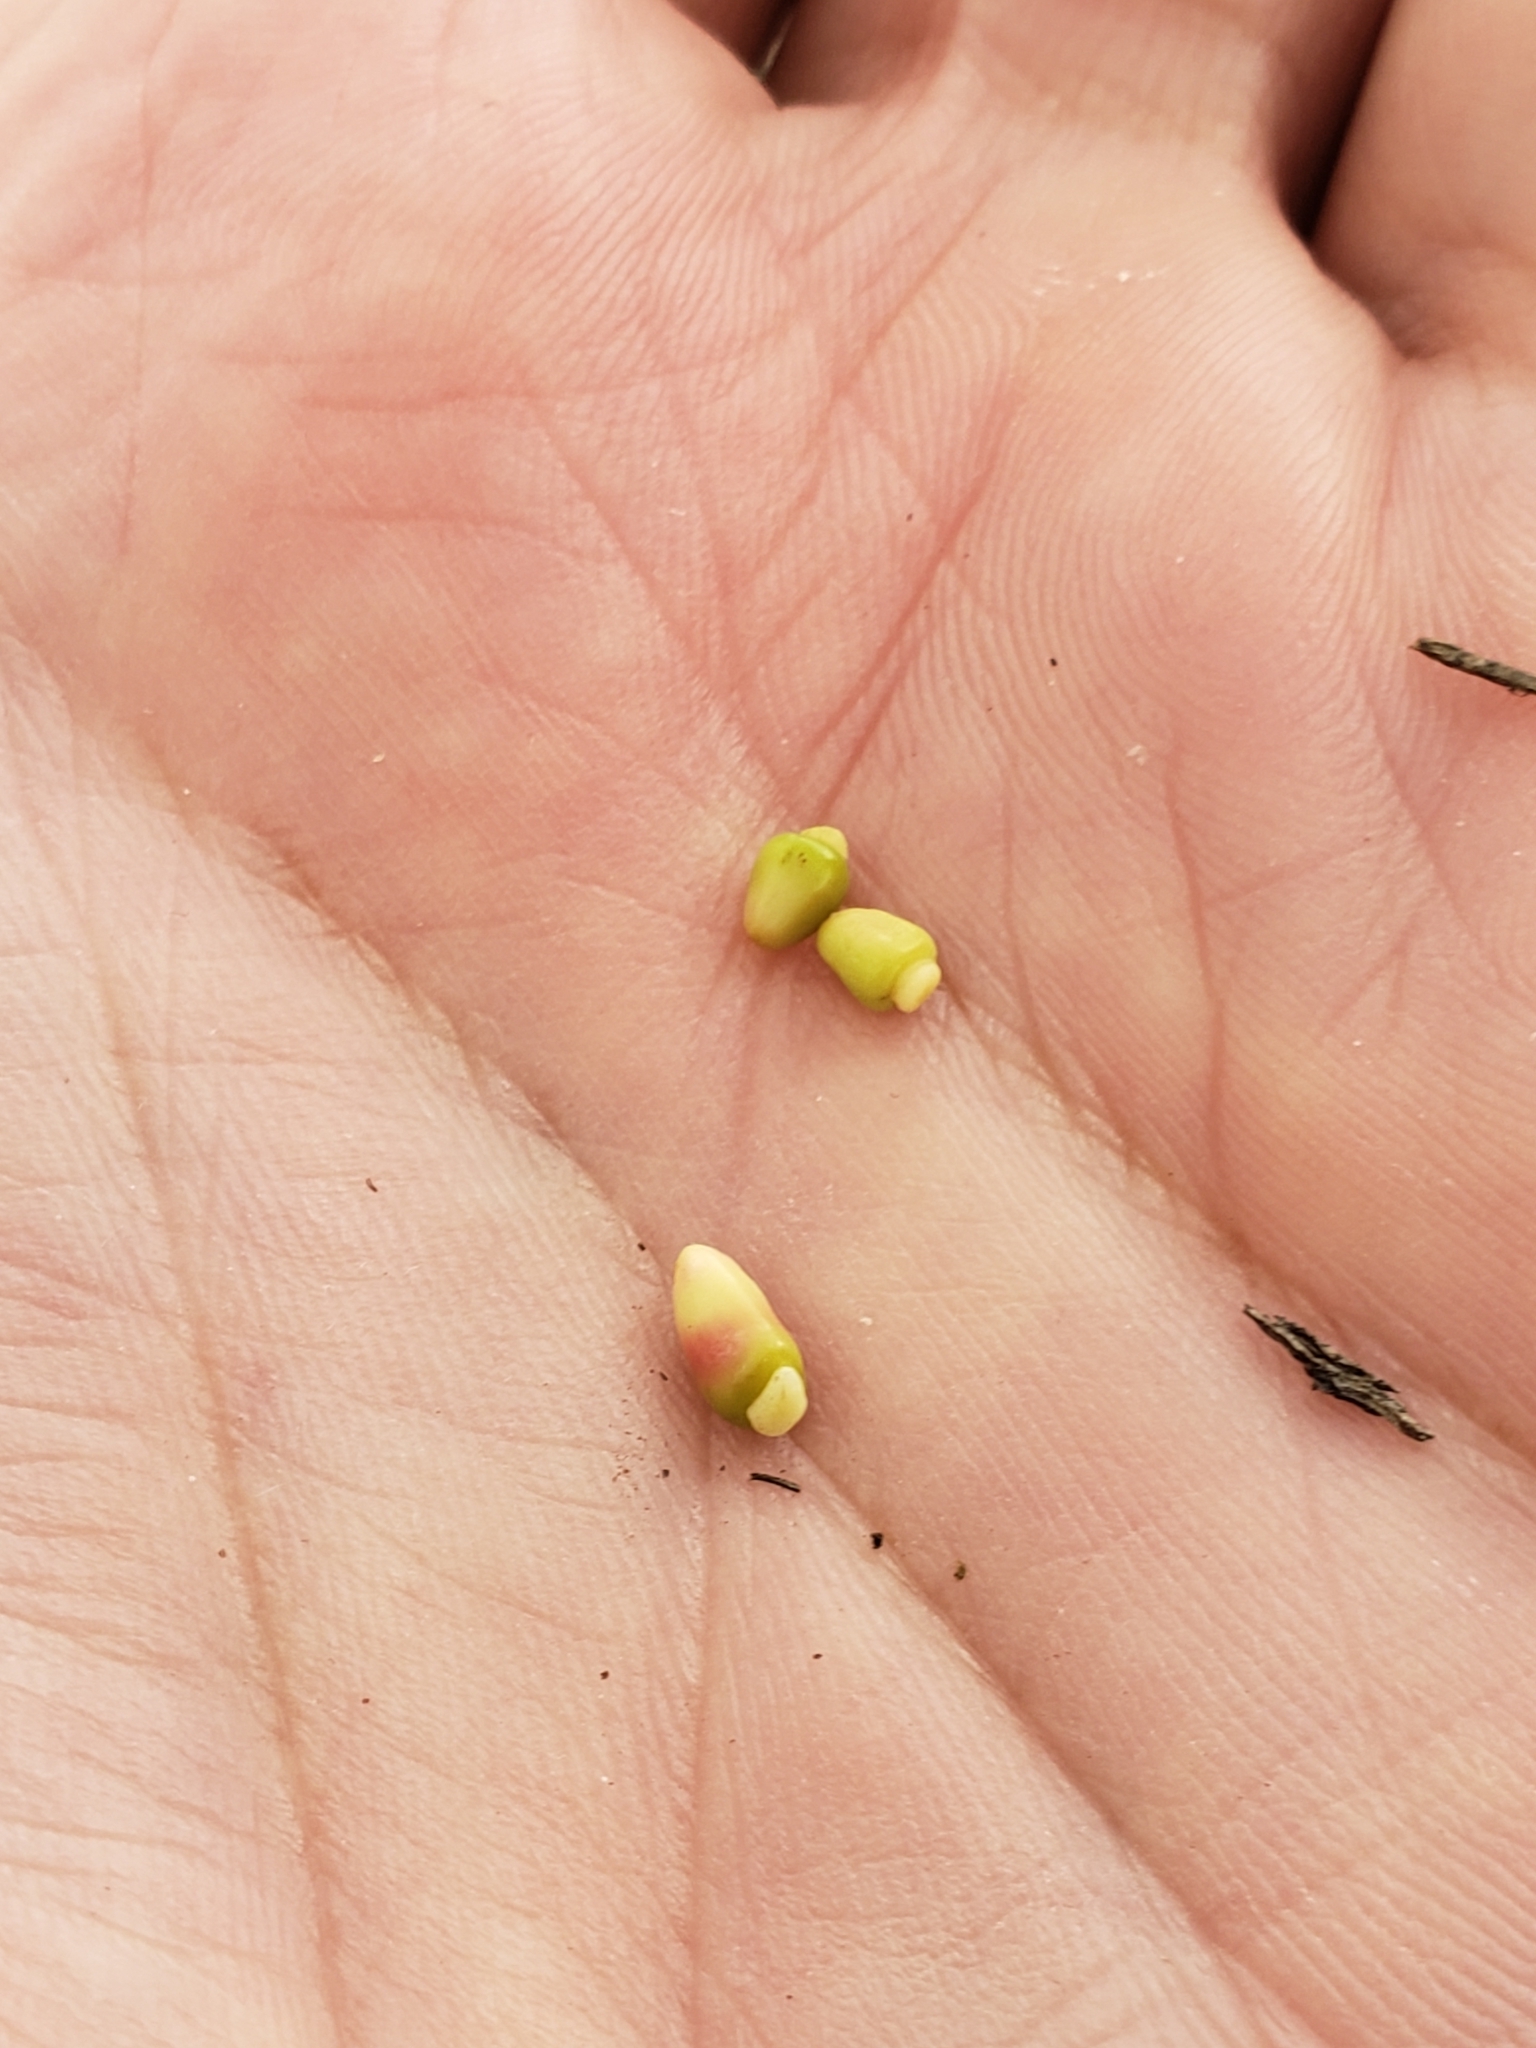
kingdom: Animalia
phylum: Arthropoda
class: Insecta
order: Hymenoptera
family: Cynipidae
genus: Kokkocynips
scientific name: Kokkocynips decidua
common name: Oak wheat gall
